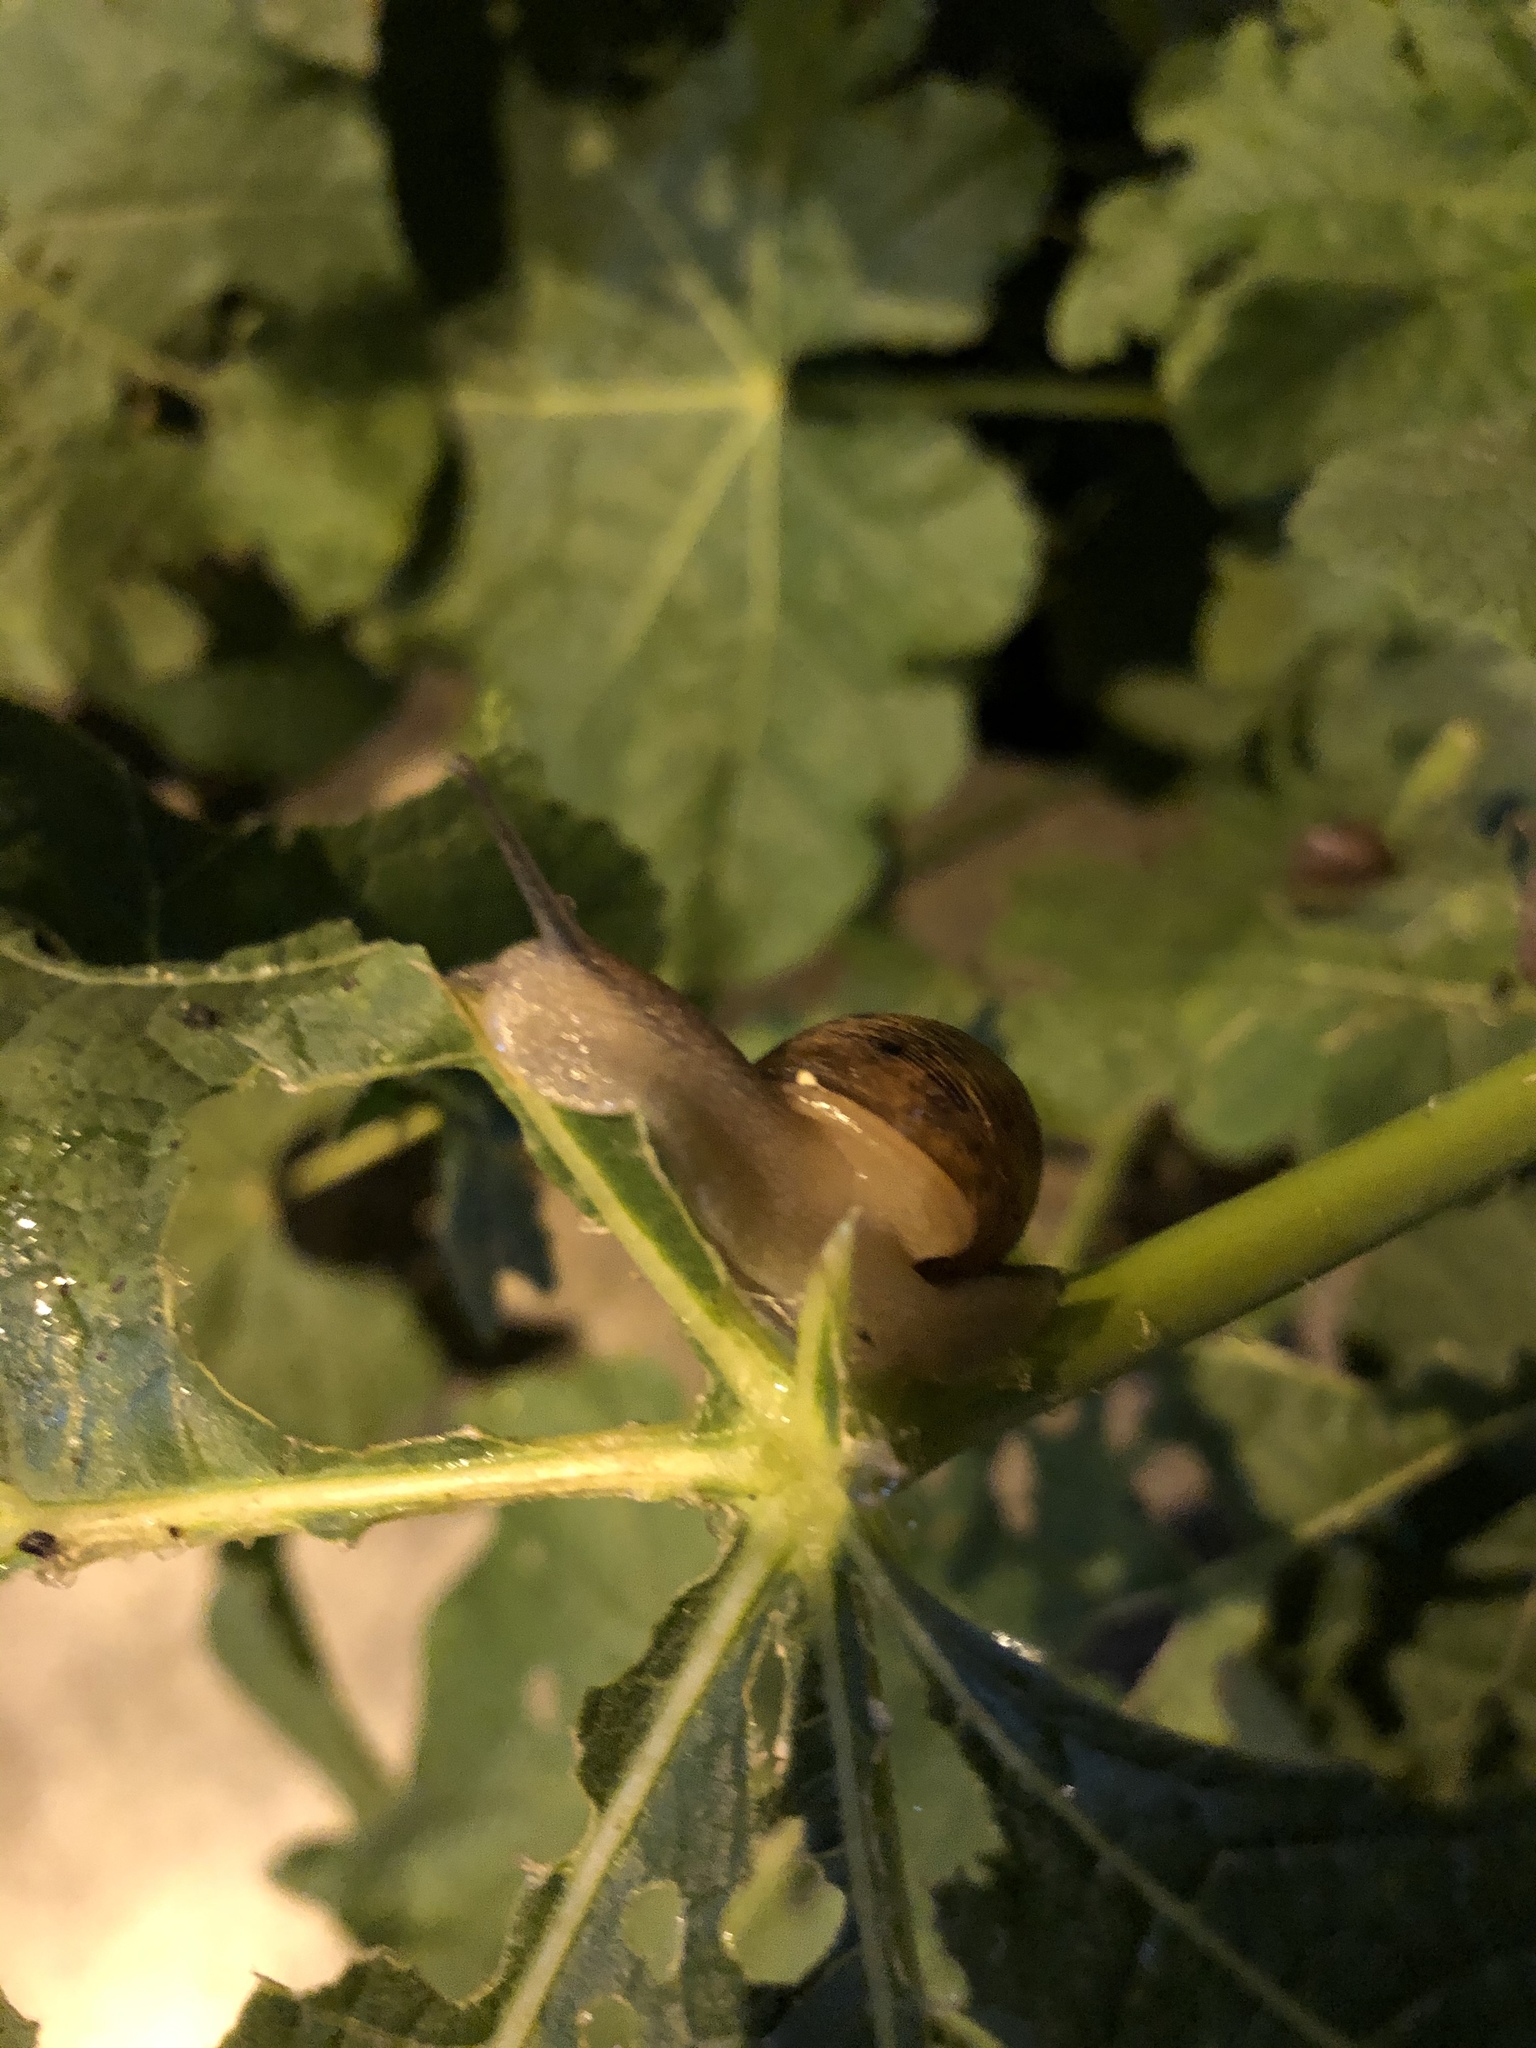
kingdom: Animalia
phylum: Mollusca
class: Gastropoda
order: Stylommatophora
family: Helicidae
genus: Cornu
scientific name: Cornu aspersum
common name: Brown garden snail
